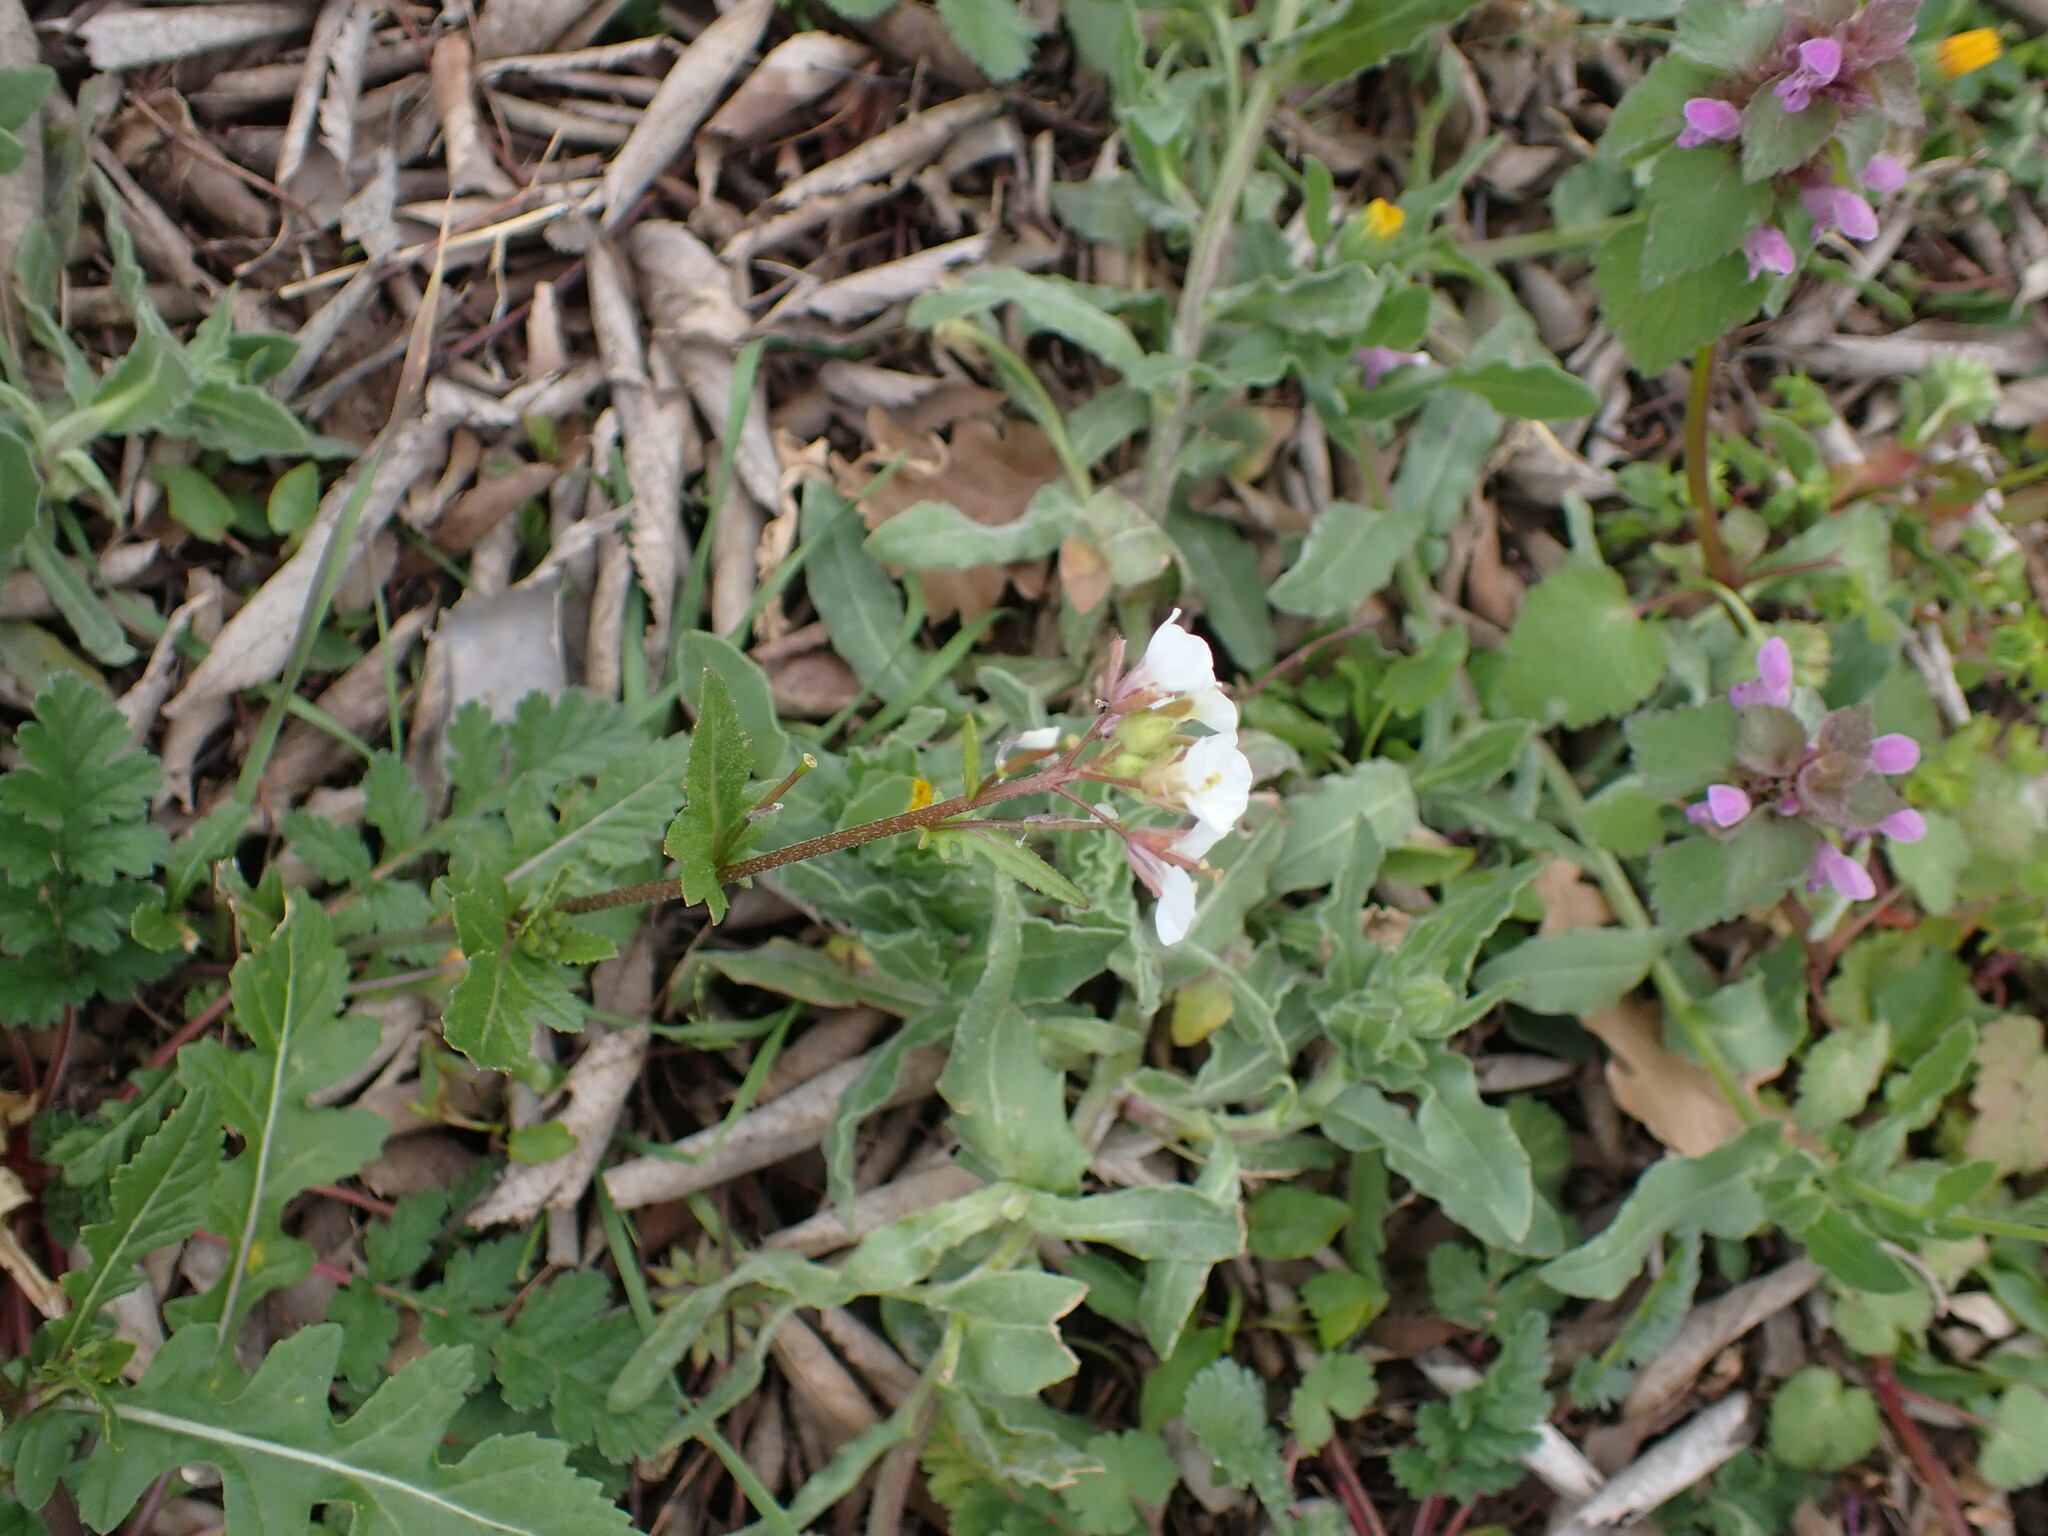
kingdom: Plantae
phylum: Tracheophyta
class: Magnoliopsida
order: Brassicales
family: Brassicaceae
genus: Diplotaxis
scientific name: Diplotaxis erucoides
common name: White rocket
